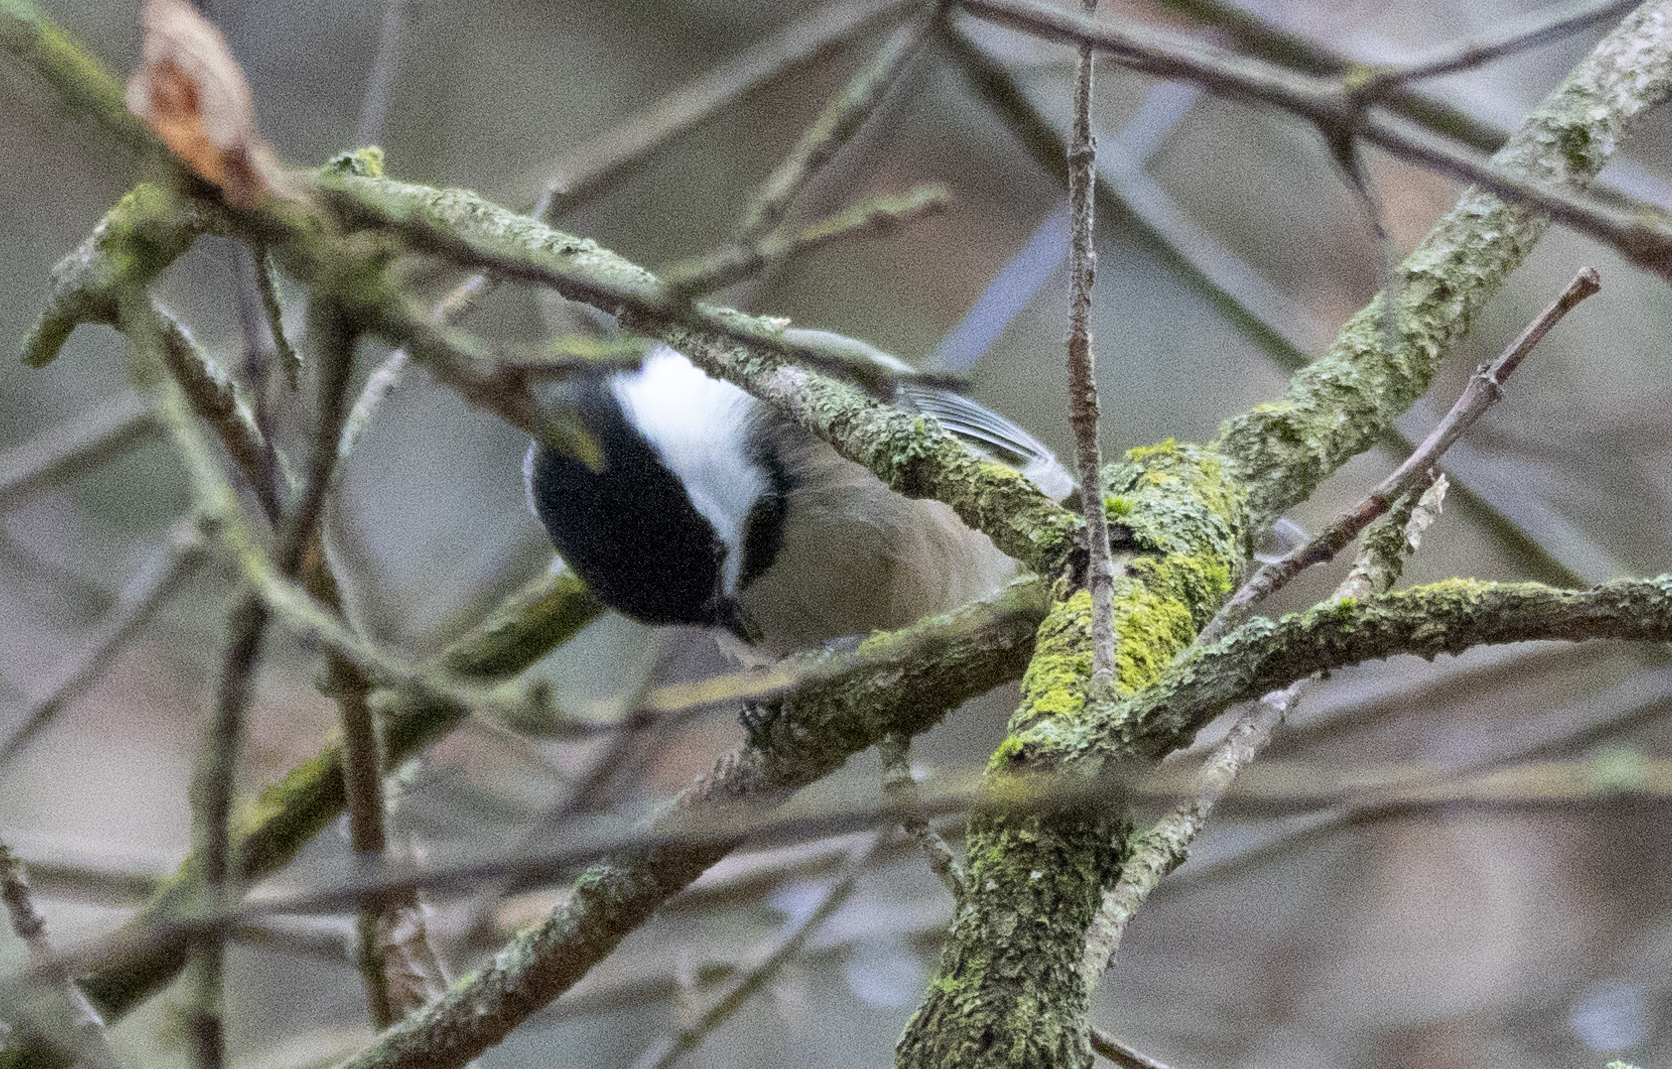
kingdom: Animalia
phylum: Chordata
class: Aves
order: Passeriformes
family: Paridae
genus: Poecile
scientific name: Poecile atricapillus
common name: Black-capped chickadee
